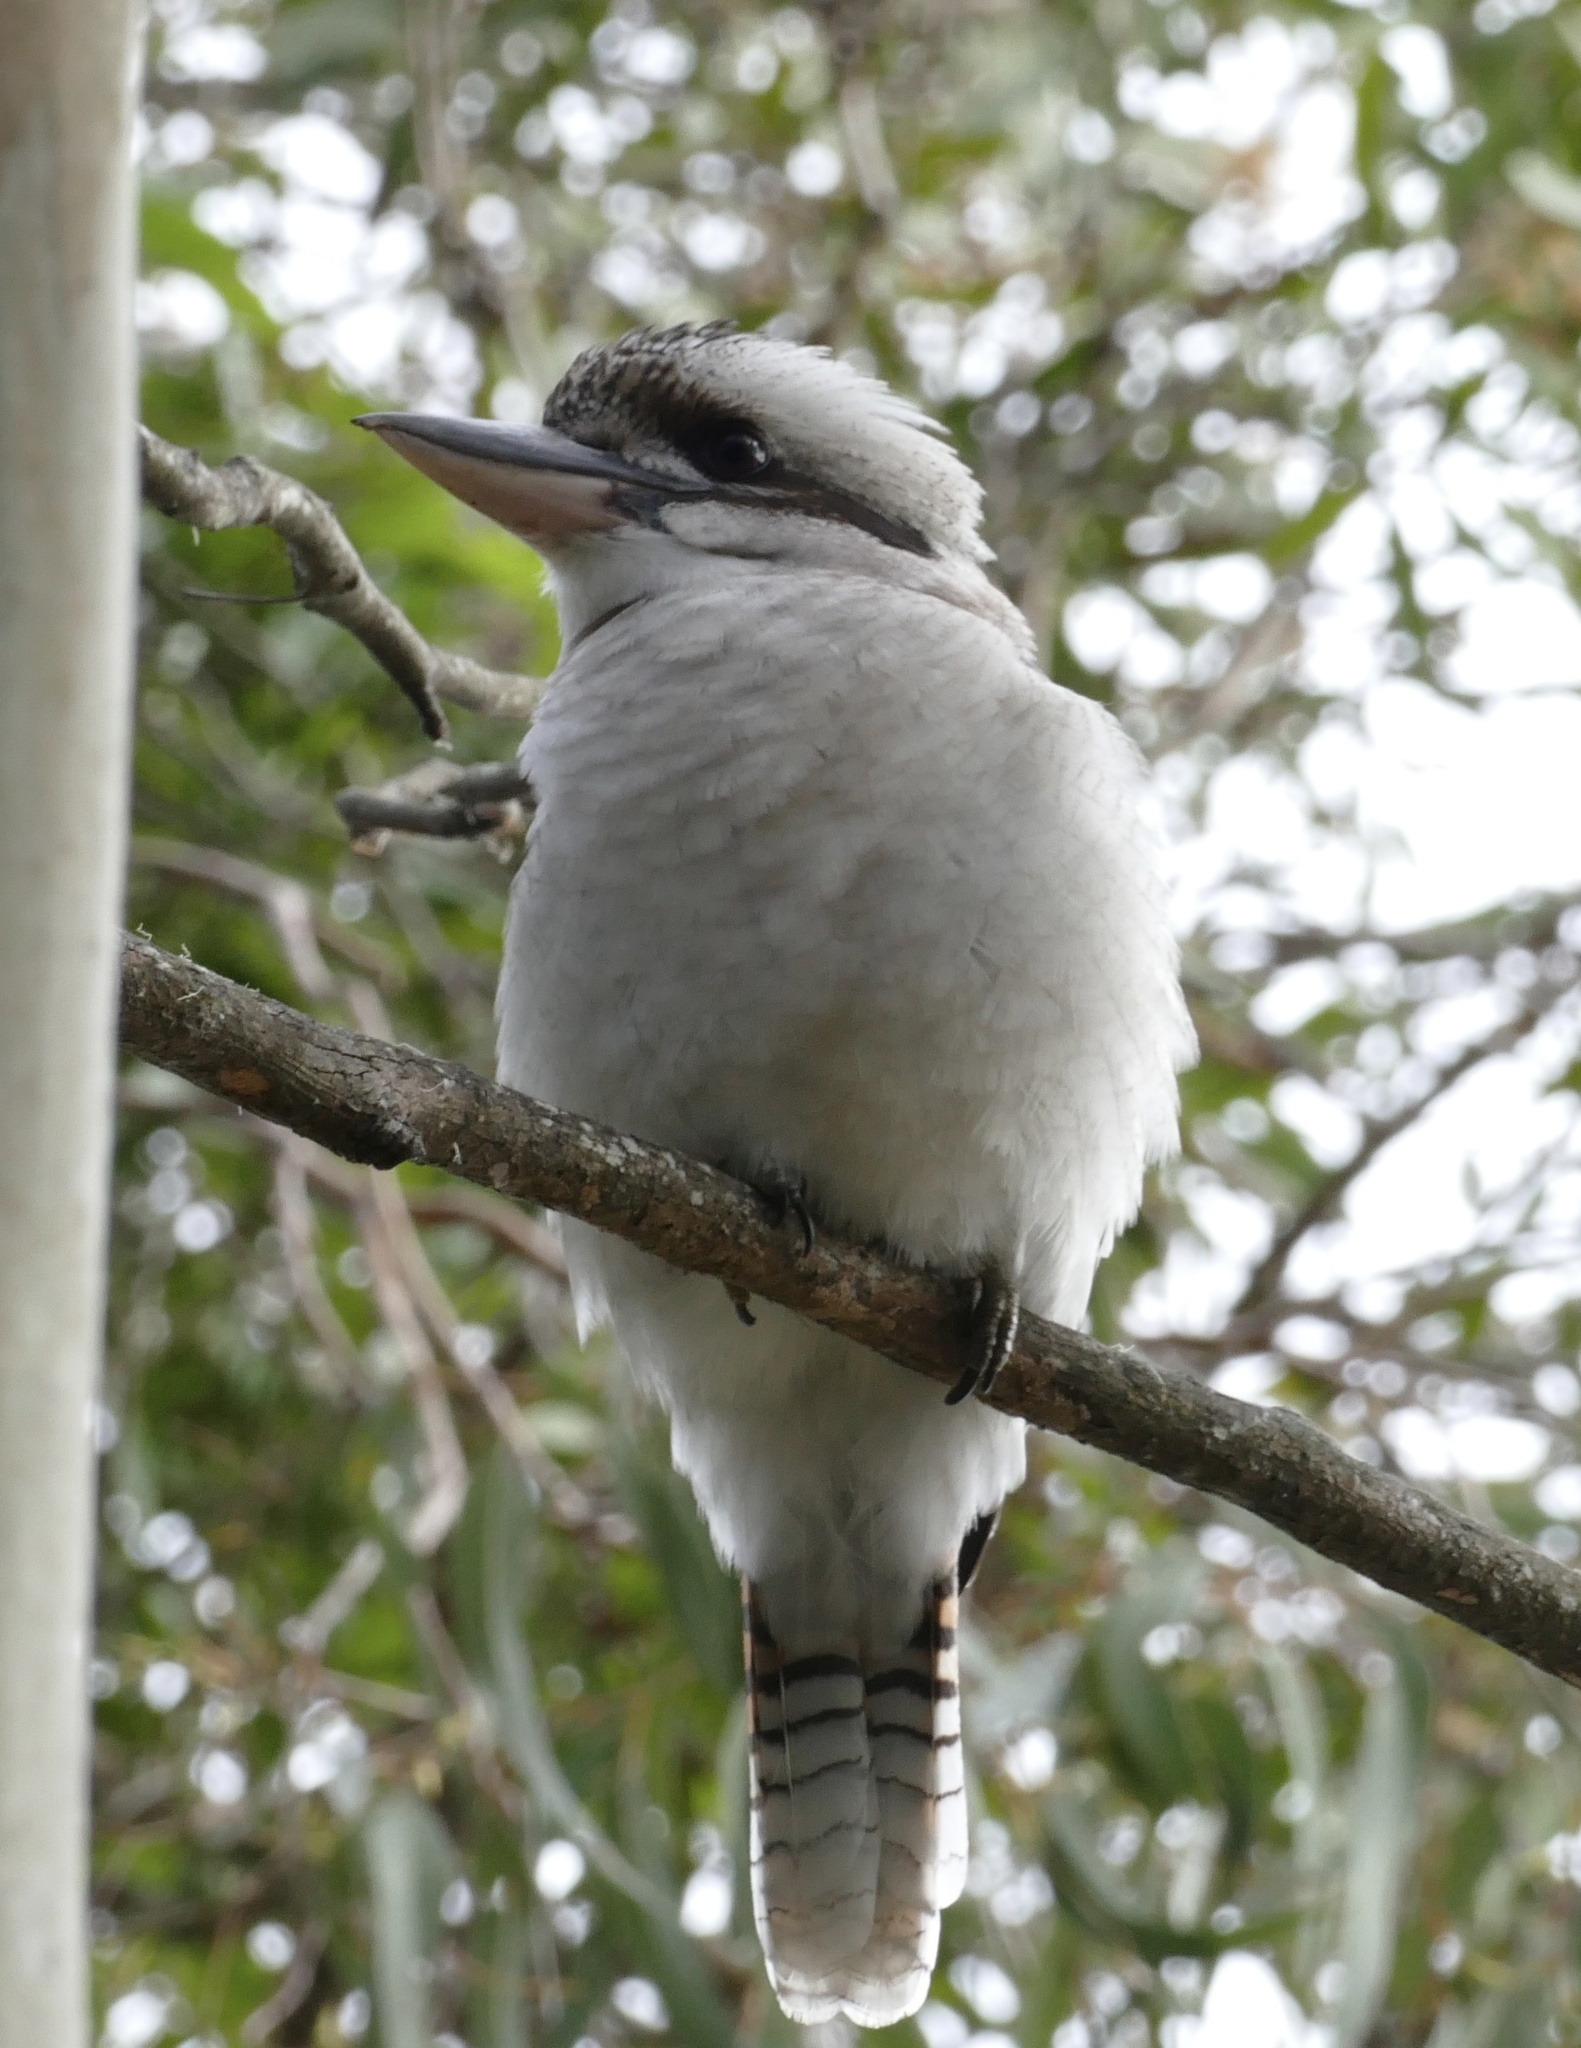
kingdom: Animalia
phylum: Chordata
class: Aves
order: Coraciiformes
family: Alcedinidae
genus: Dacelo
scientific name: Dacelo novaeguineae
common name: Laughing kookaburra
